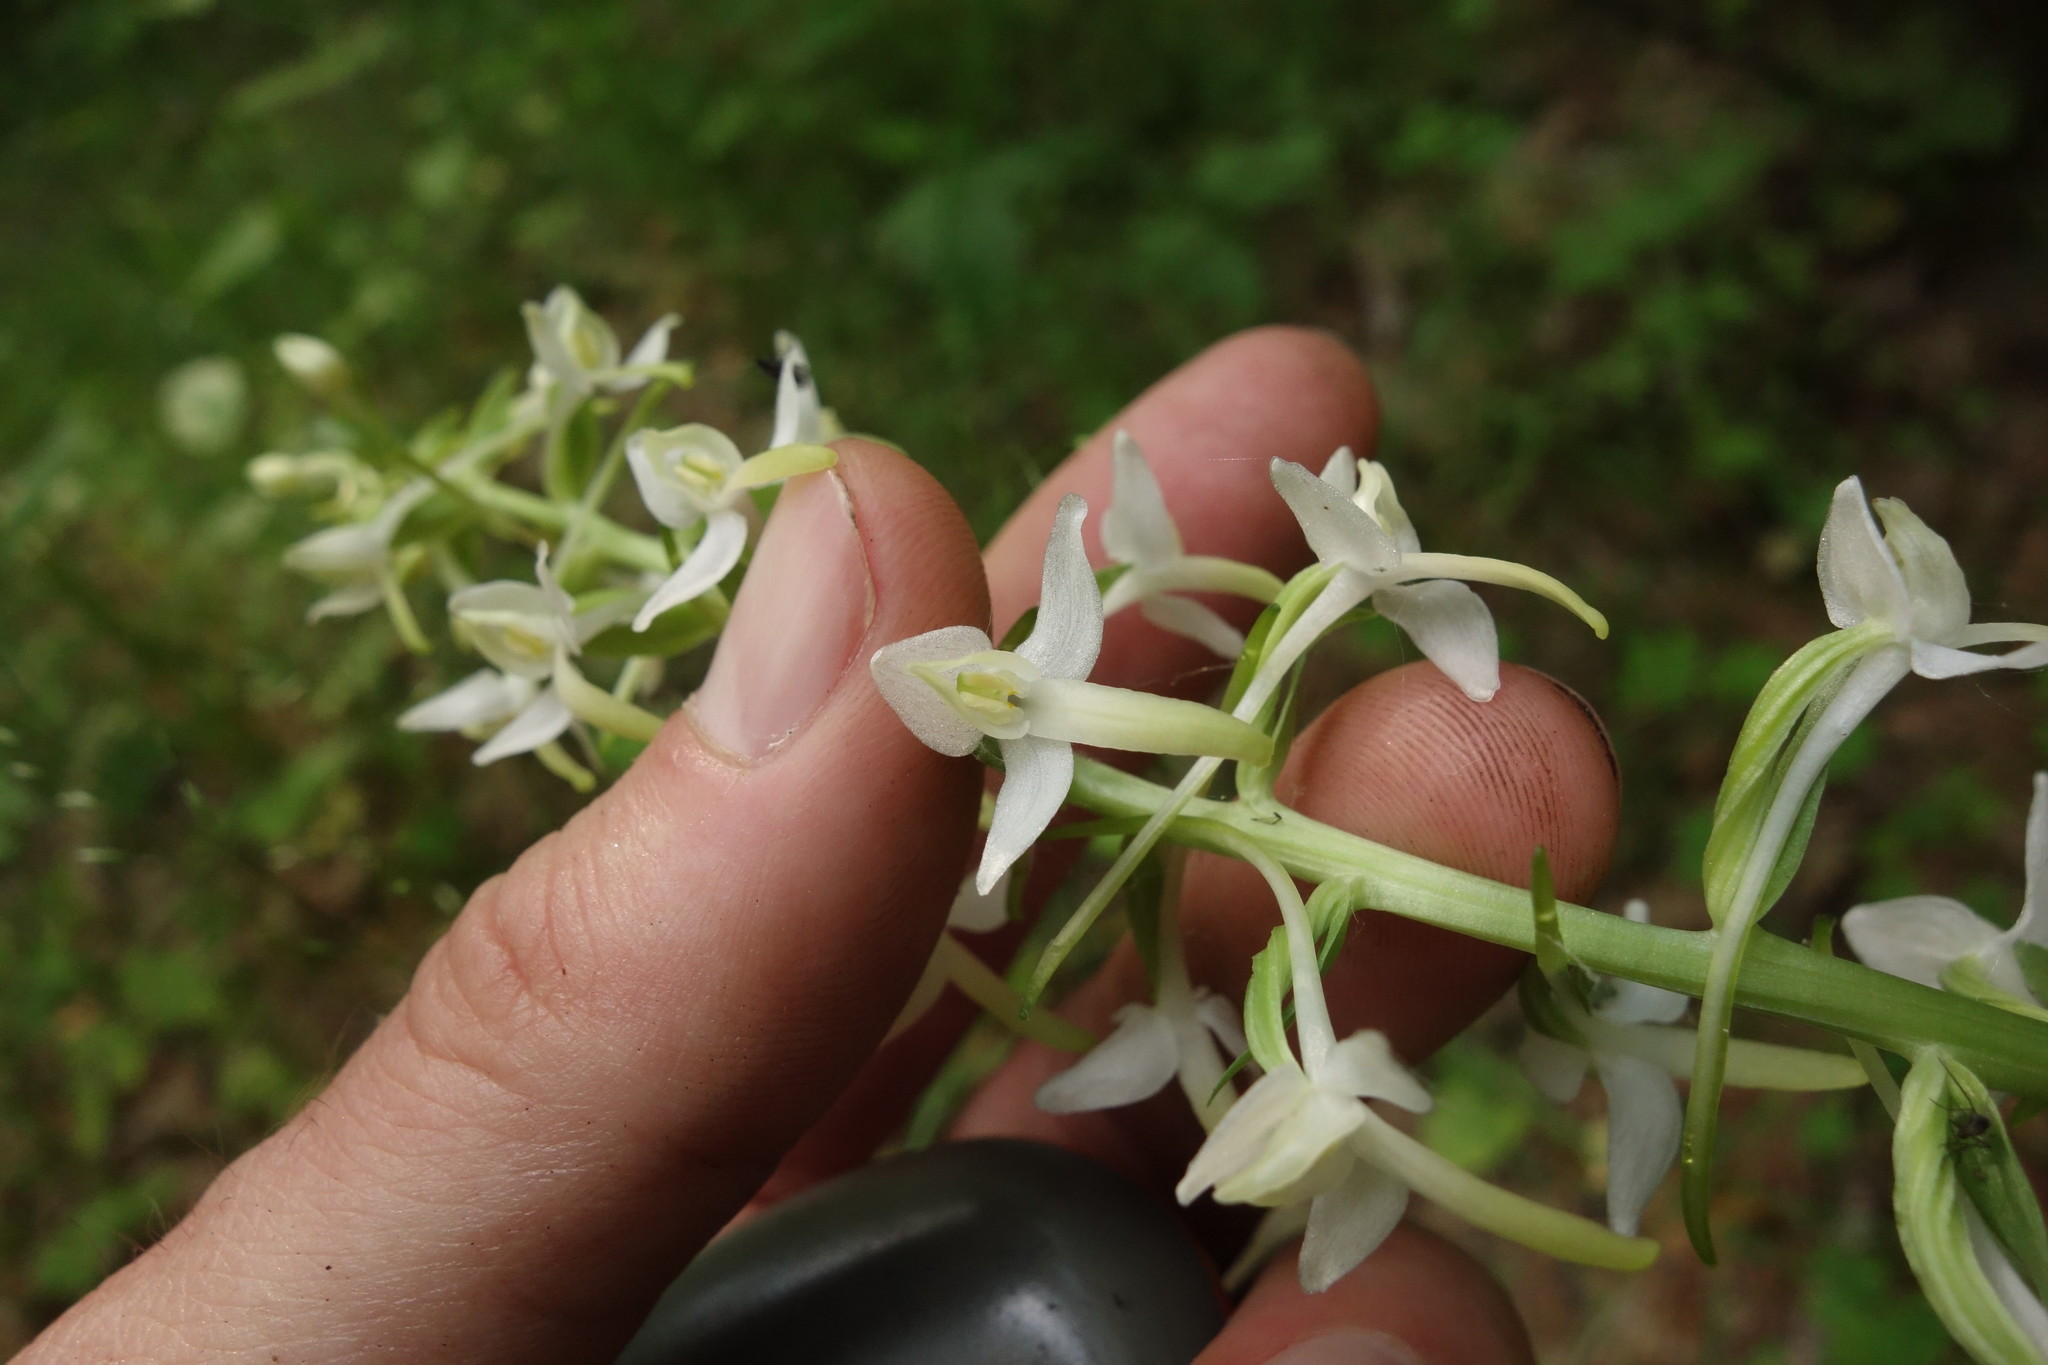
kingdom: Plantae
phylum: Tracheophyta
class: Liliopsida
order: Asparagales
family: Orchidaceae
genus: Platanthera
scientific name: Platanthera bifolia
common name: Lesser butterfly-orchid
